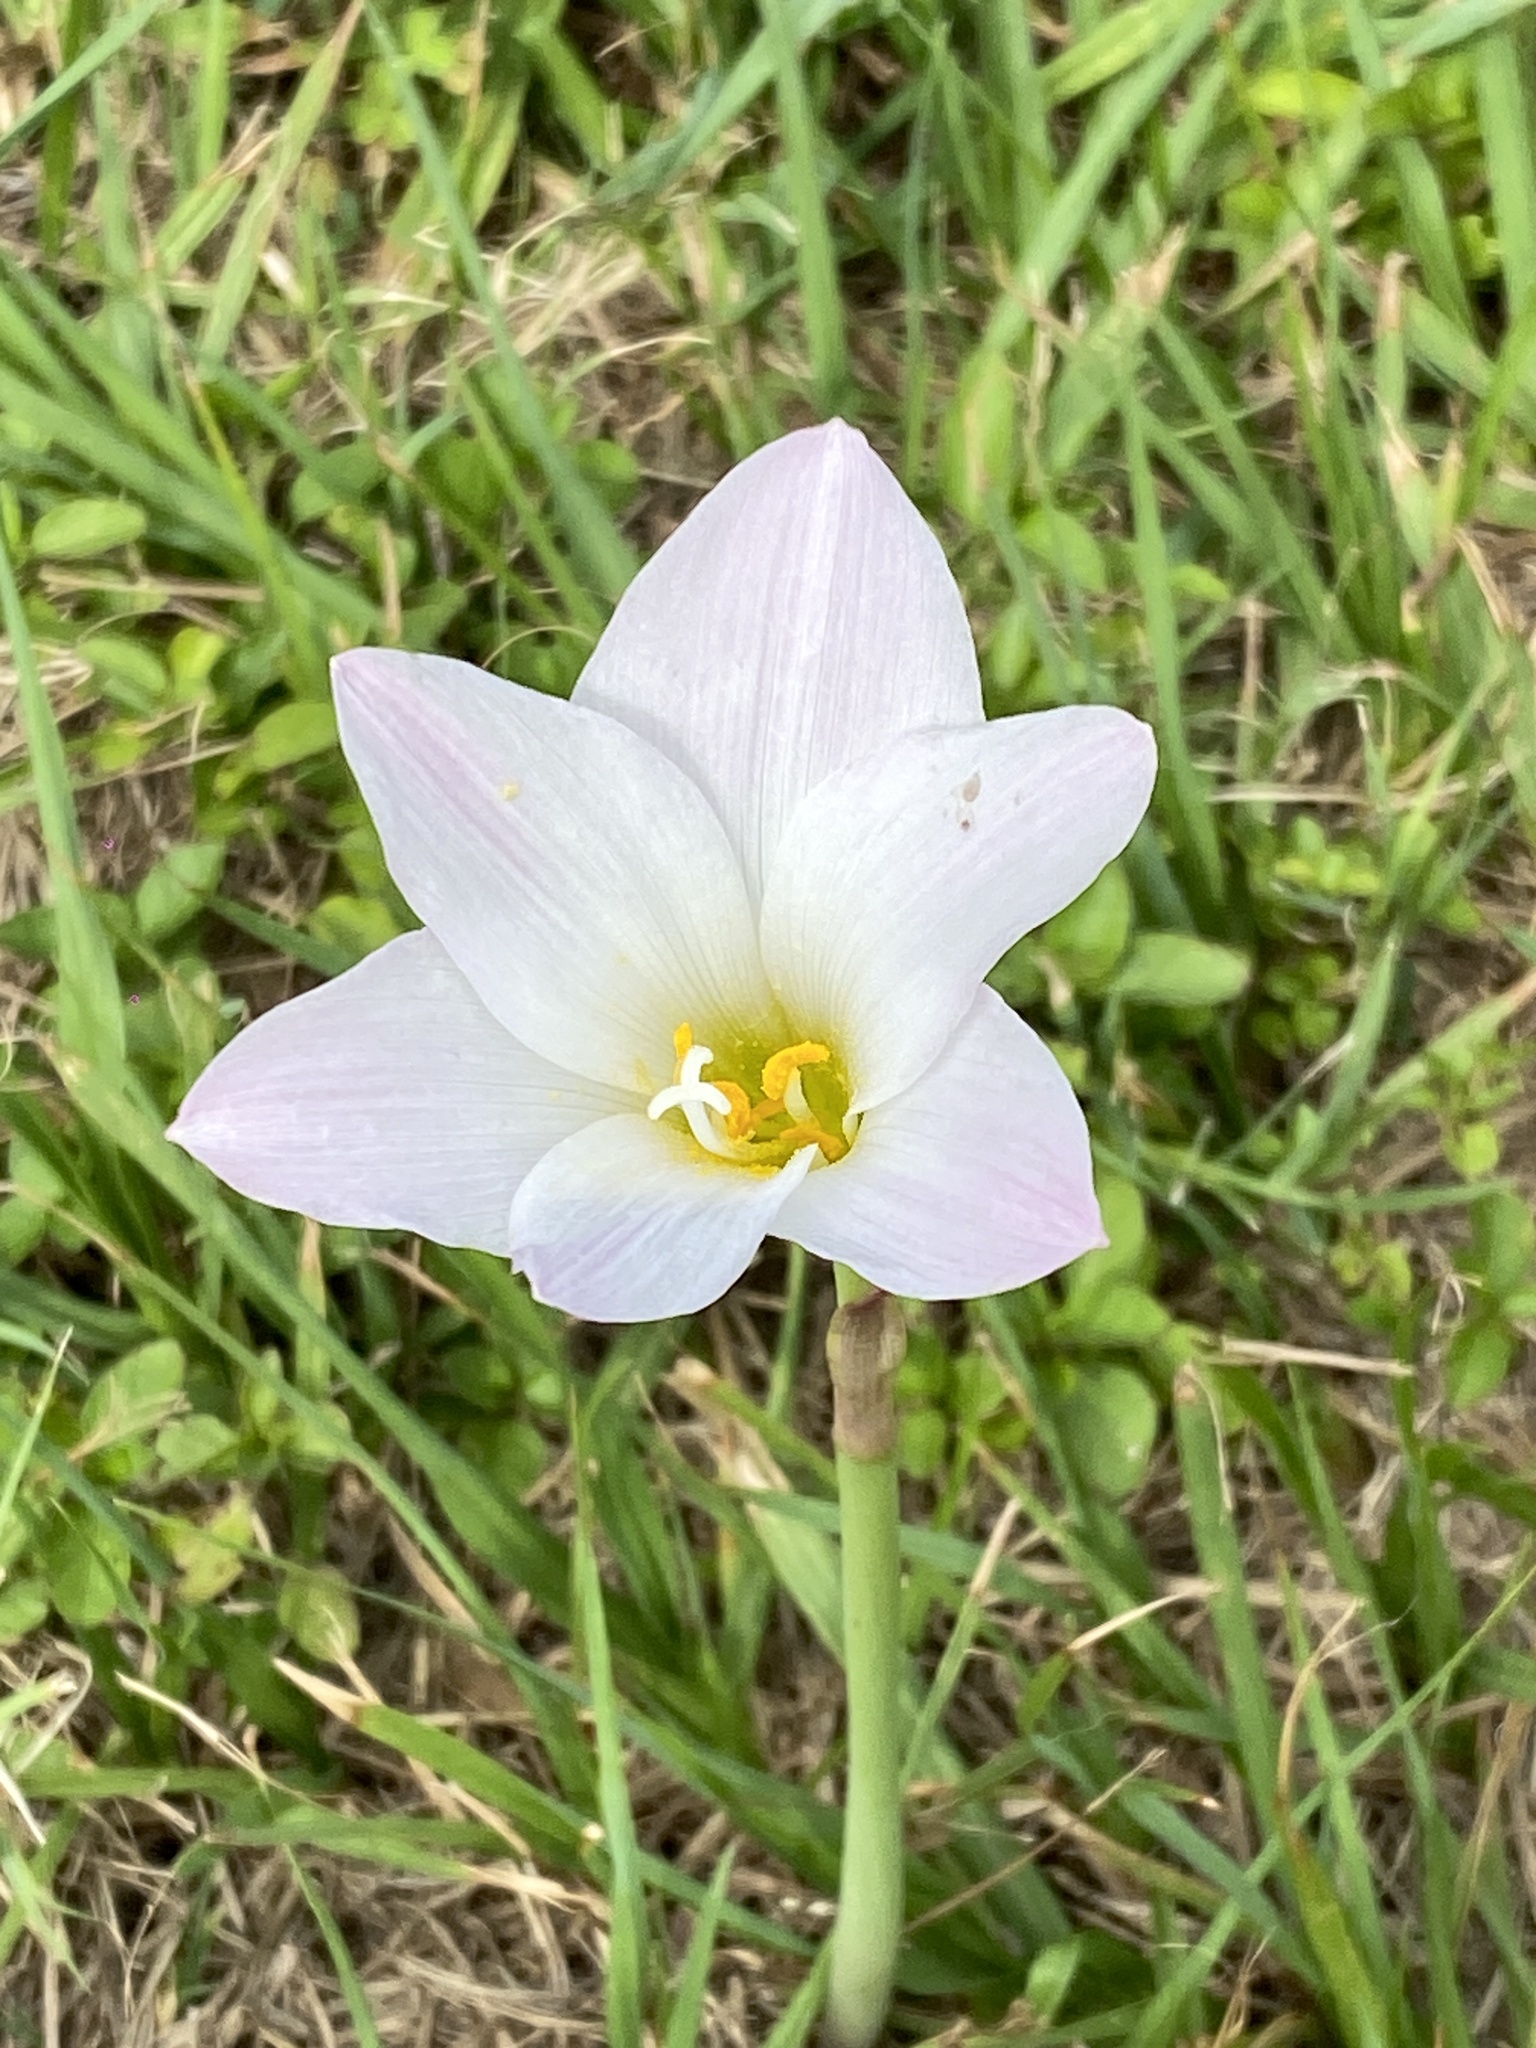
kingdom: Plantae
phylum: Tracheophyta
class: Liliopsida
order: Asparagales
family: Amaryllidaceae
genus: Zephyranthes
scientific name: Zephyranthes robusta
